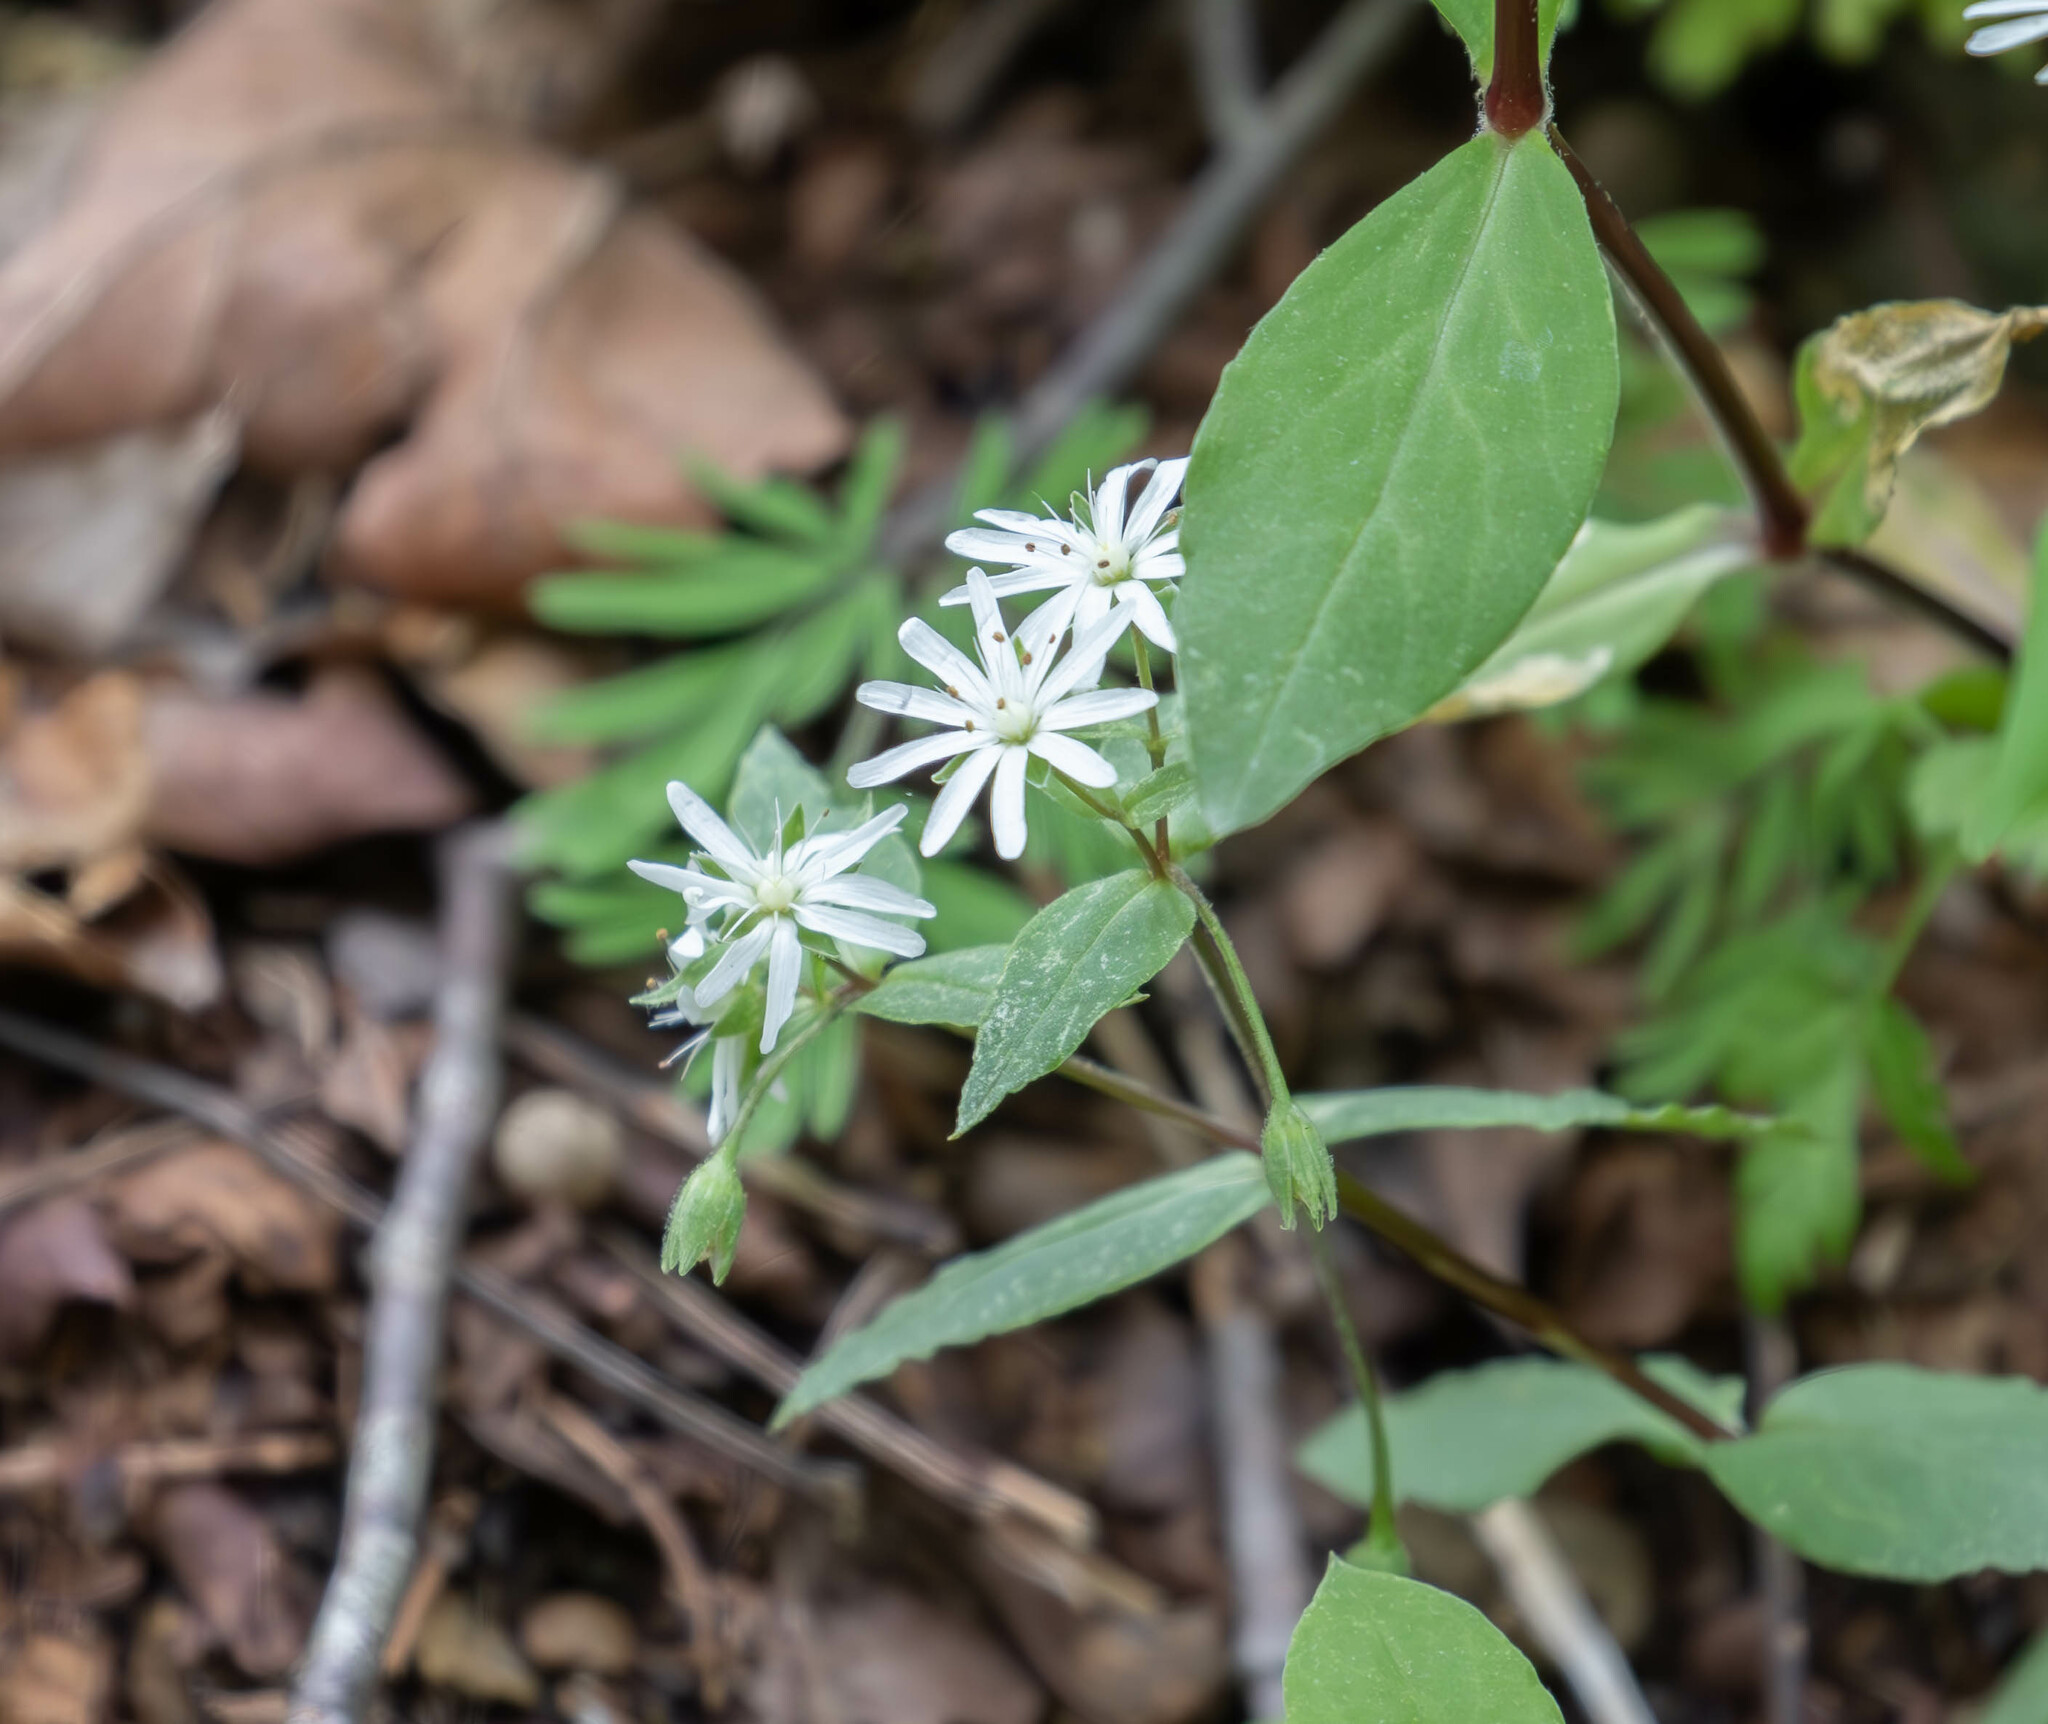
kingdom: Plantae
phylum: Tracheophyta
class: Magnoliopsida
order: Caryophyllales
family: Caryophyllaceae
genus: Stellaria
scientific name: Stellaria pubera
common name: Star chickweed
